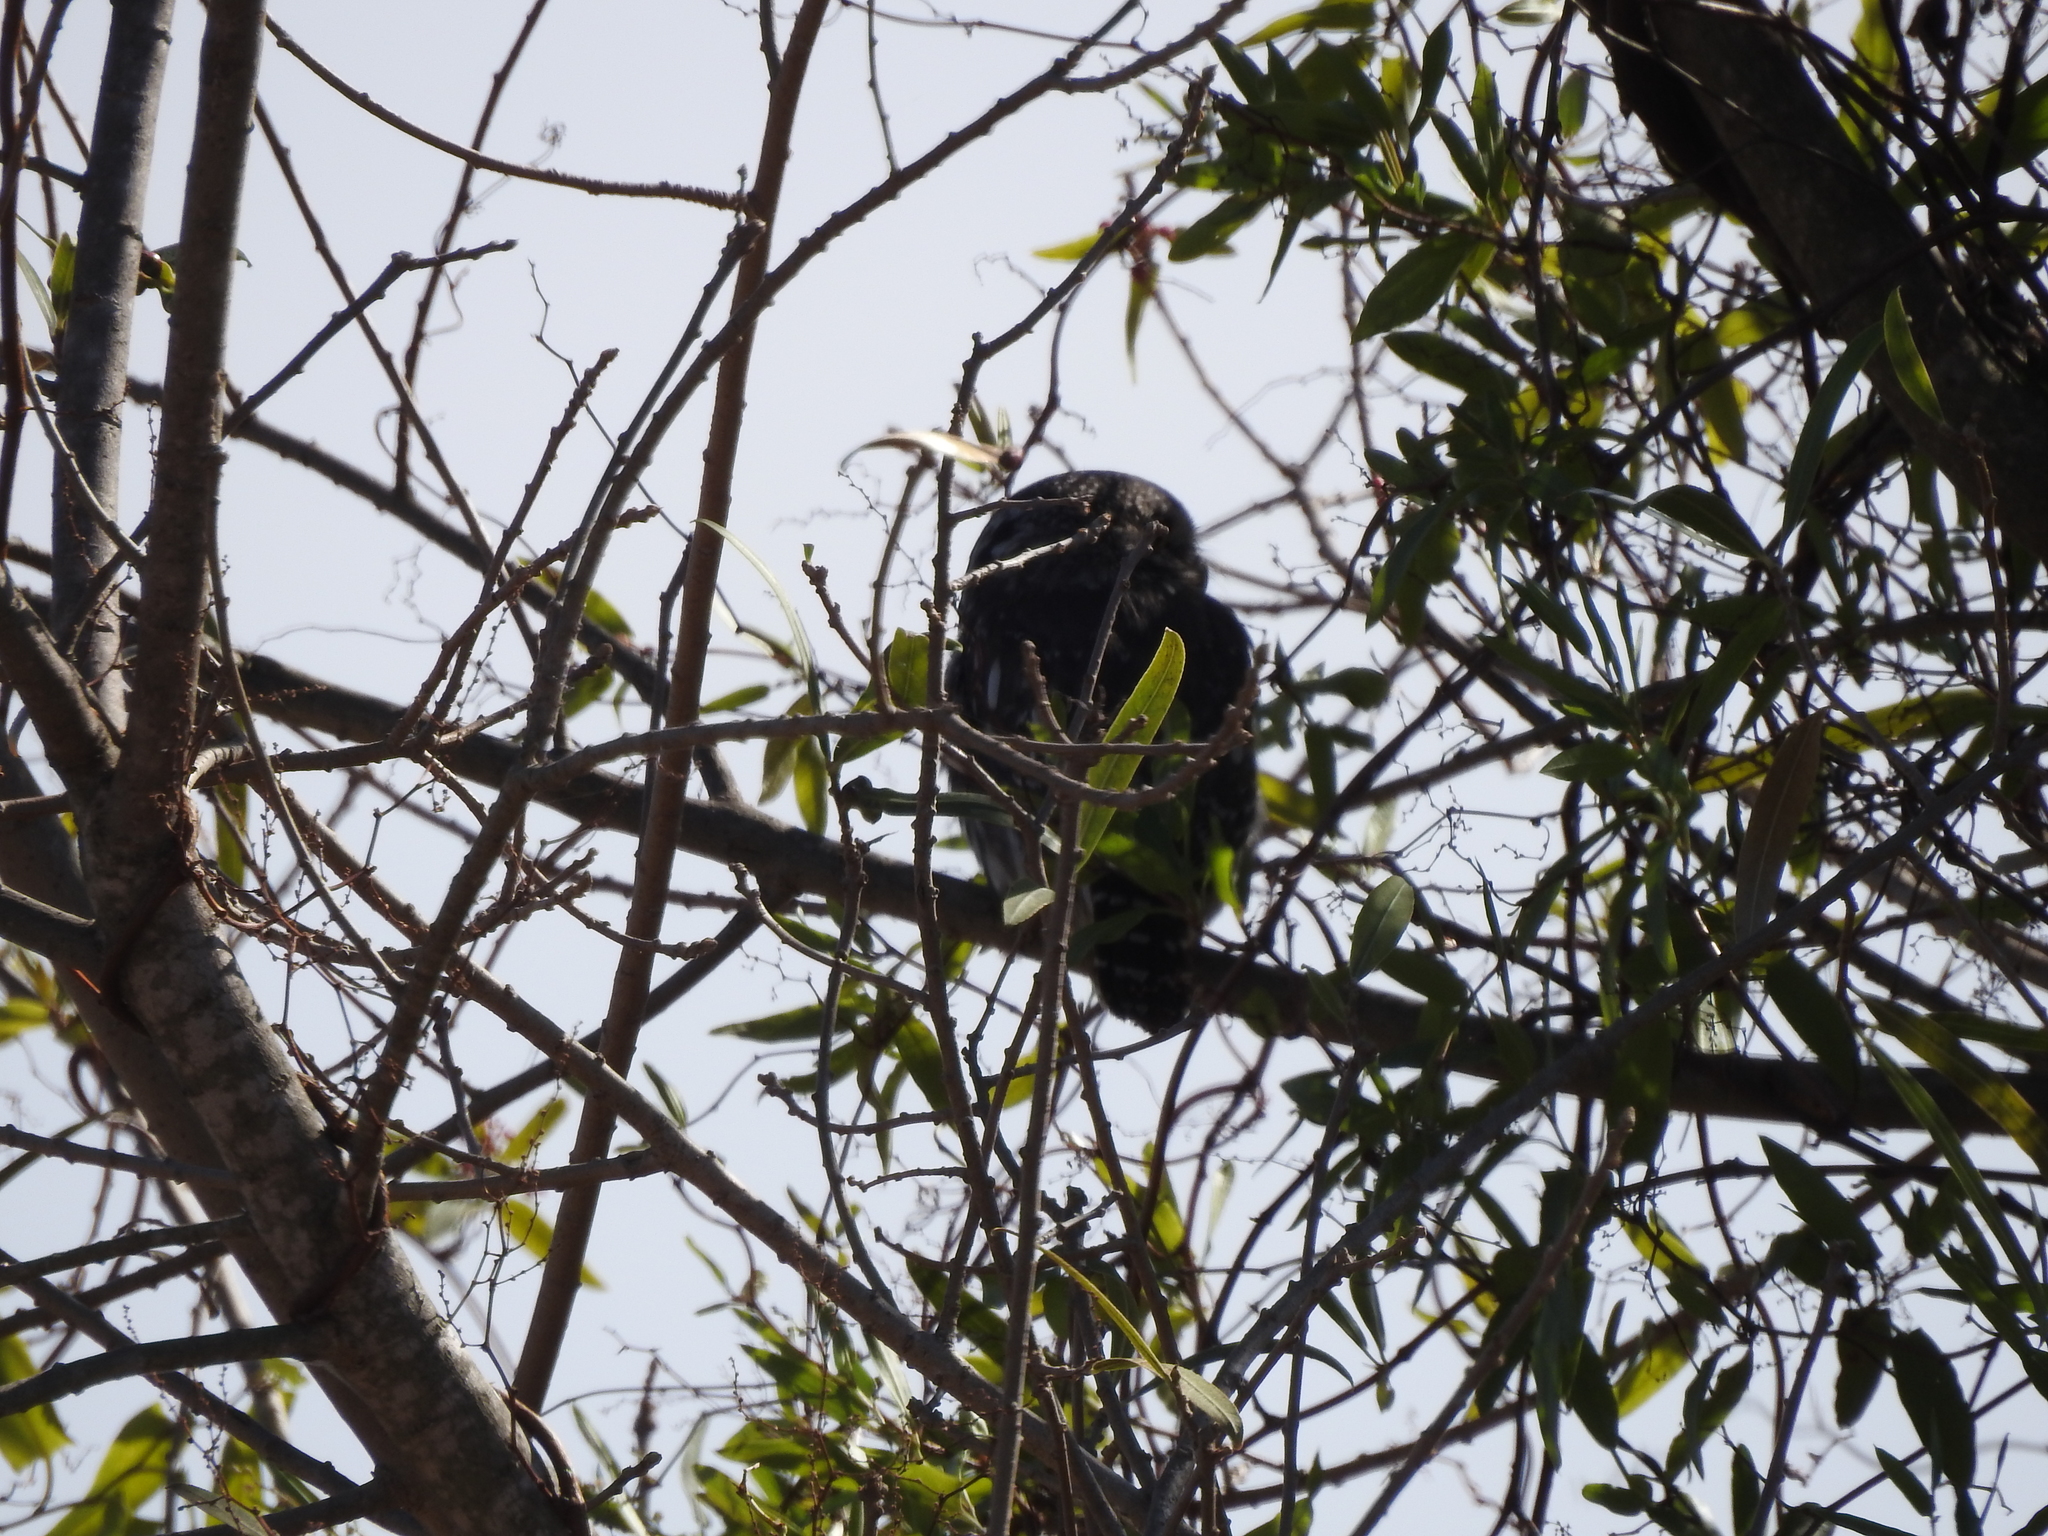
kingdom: Animalia
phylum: Chordata
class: Aves
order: Strigiformes
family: Strigidae
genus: Glaucidium
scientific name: Glaucidium brasilianum
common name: Ferruginous pygmy-owl
